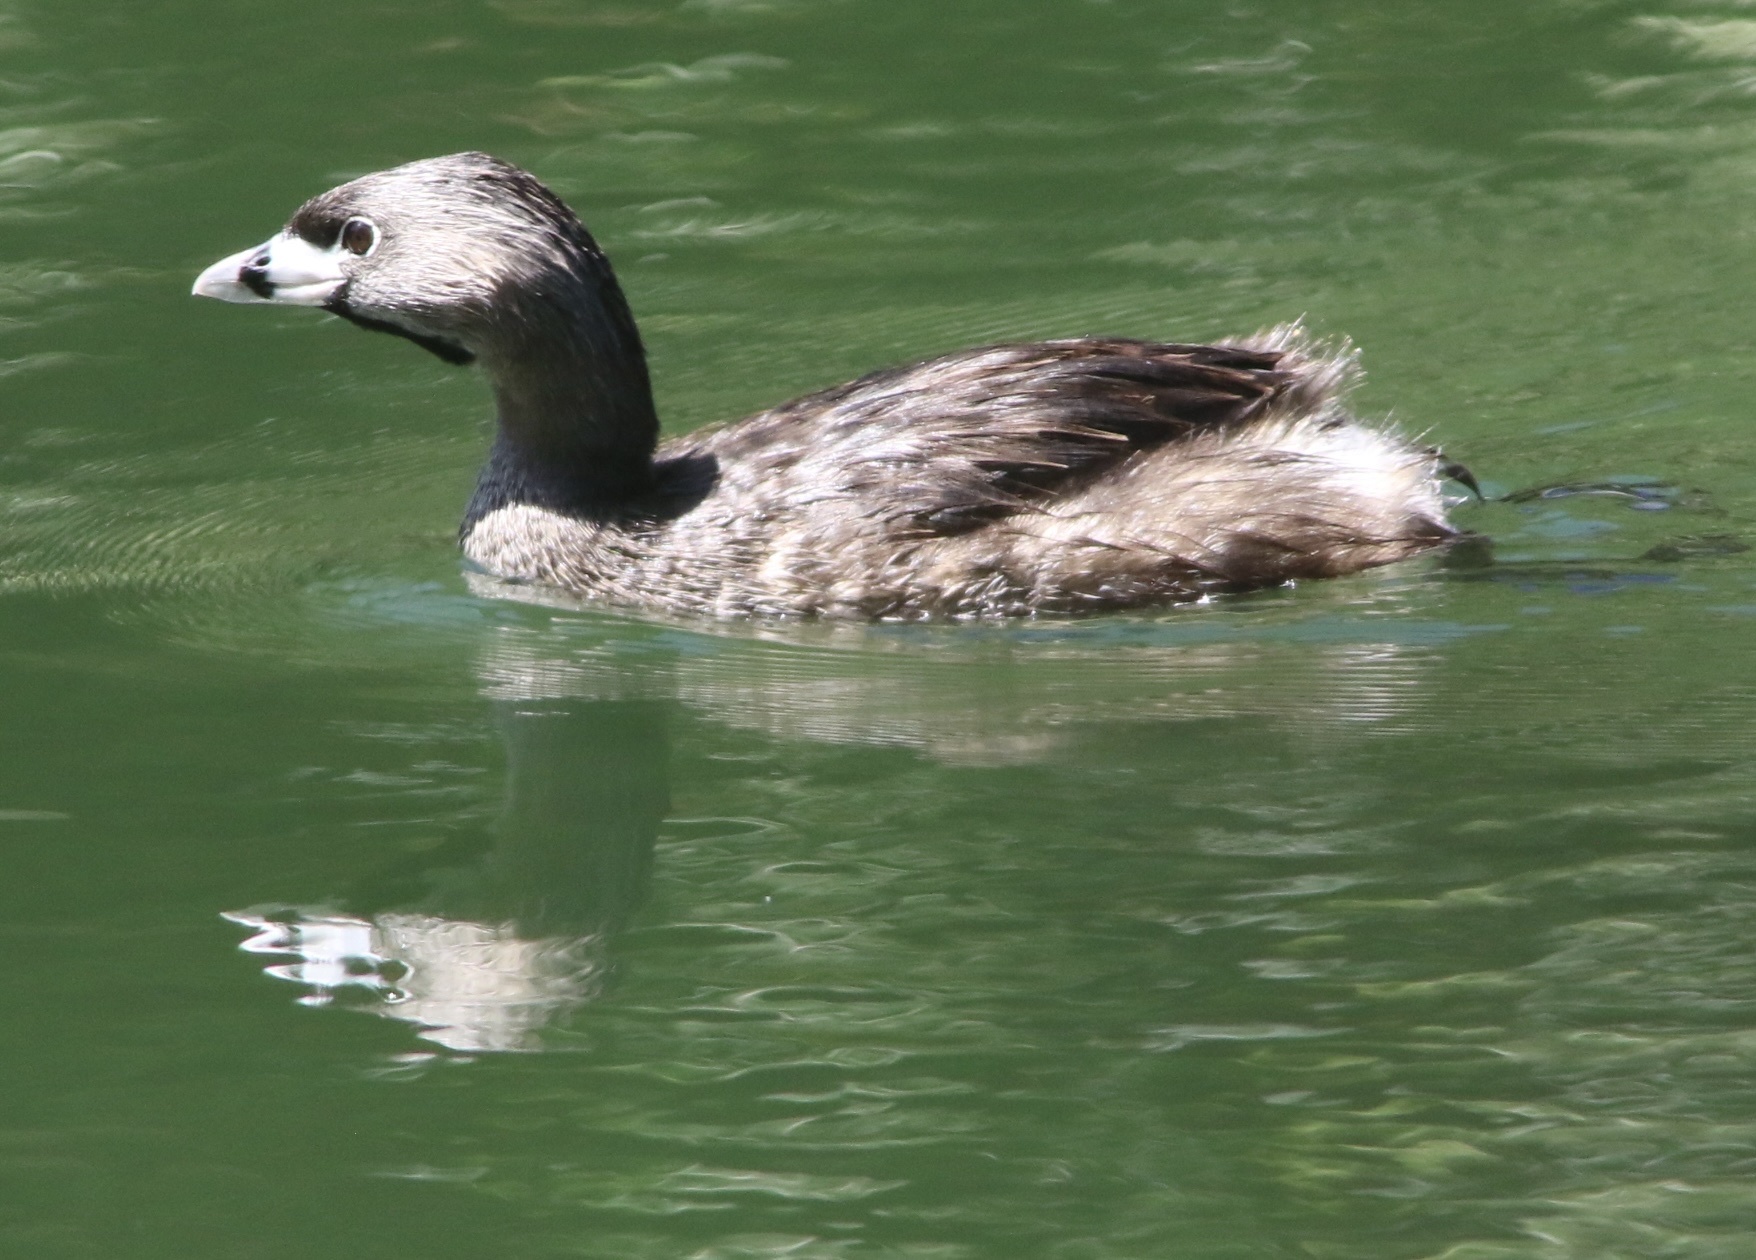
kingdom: Animalia
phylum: Chordata
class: Aves
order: Podicipediformes
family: Podicipedidae
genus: Podilymbus
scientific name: Podilymbus podiceps
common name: Pied-billed grebe
